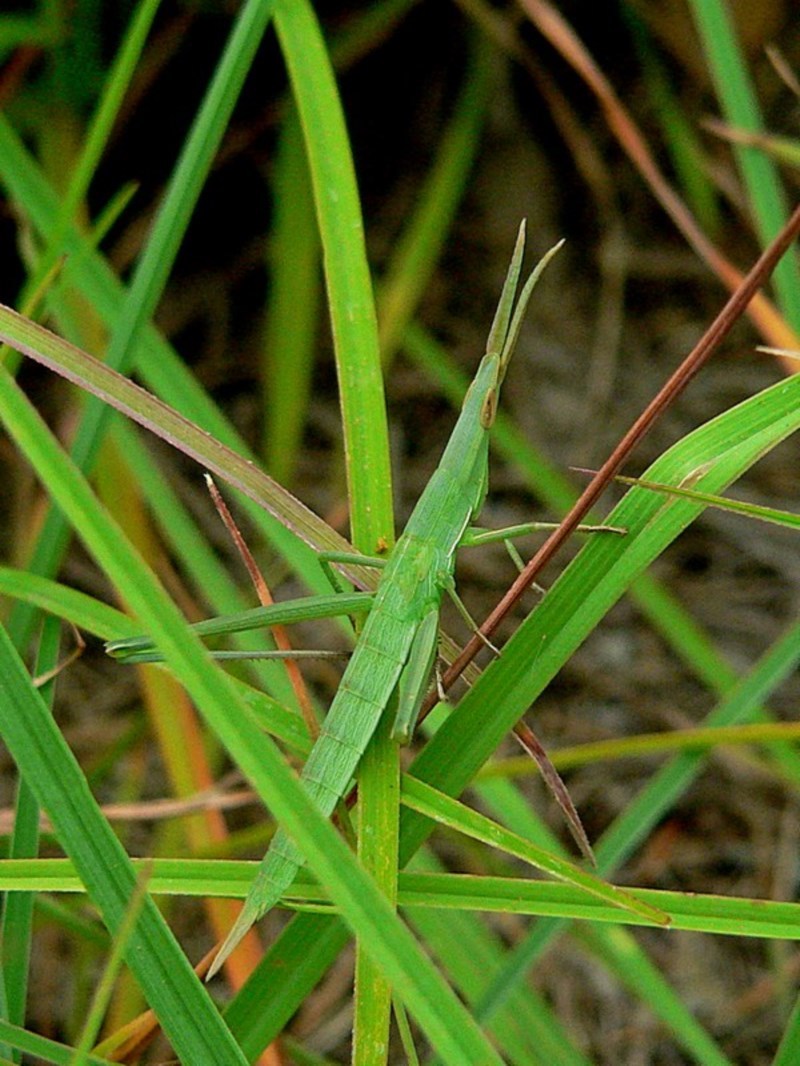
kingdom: Animalia
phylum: Arthropoda
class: Insecta
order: Orthoptera
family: Acrididae
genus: Acrida
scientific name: Acrida conica
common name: Giant green slantface
